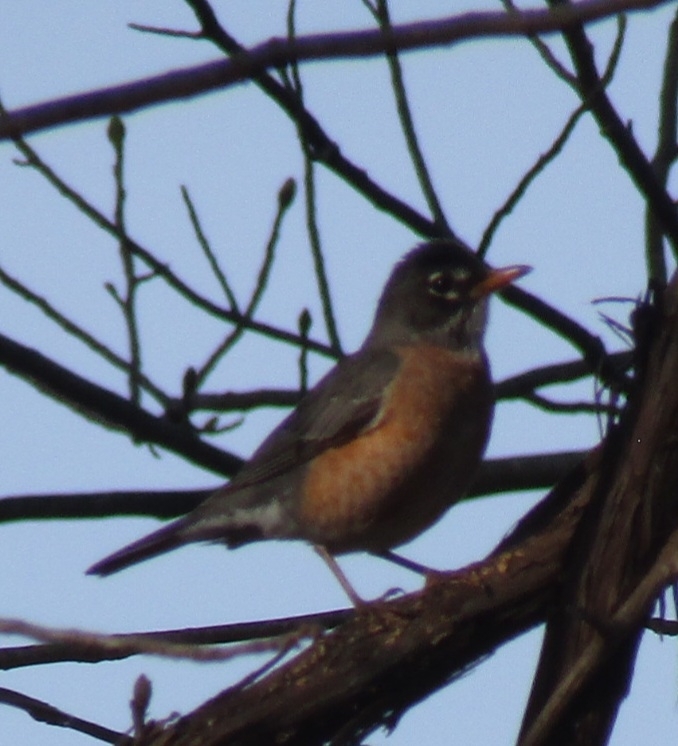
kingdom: Animalia
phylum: Chordata
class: Aves
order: Passeriformes
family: Turdidae
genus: Turdus
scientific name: Turdus migratorius
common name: American robin
